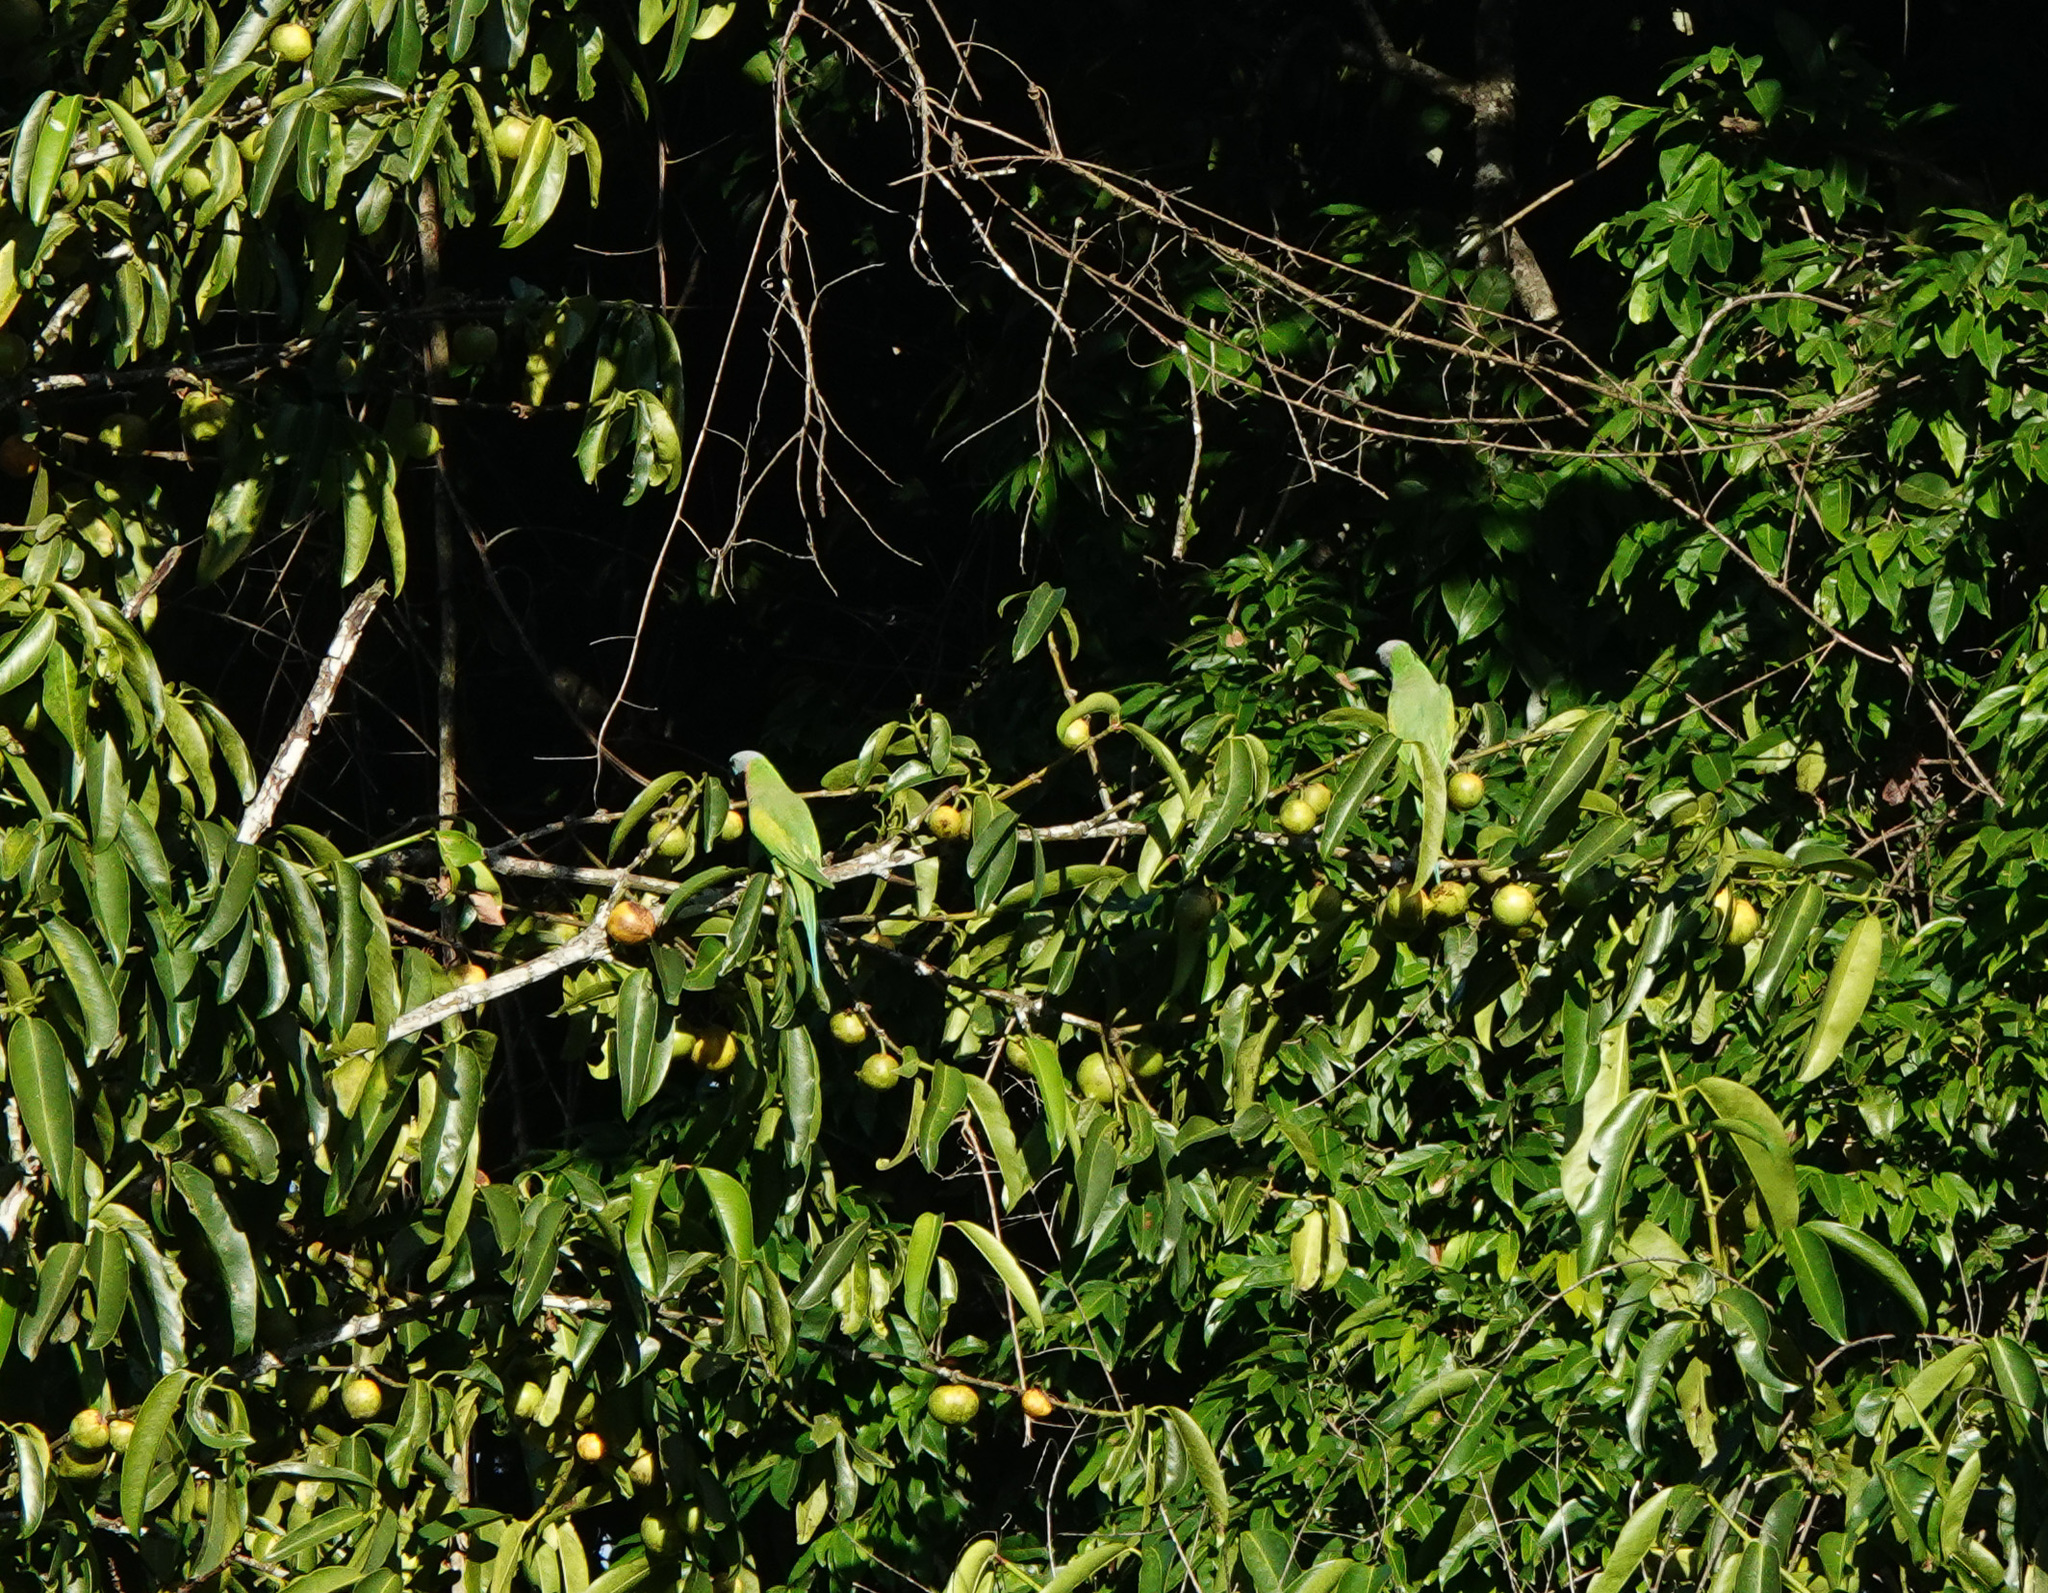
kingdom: Animalia
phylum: Chordata
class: Aves
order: Psittaciformes
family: Psittacidae
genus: Psittacula
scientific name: Psittacula alexandri
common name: Red-breasted parakeet
